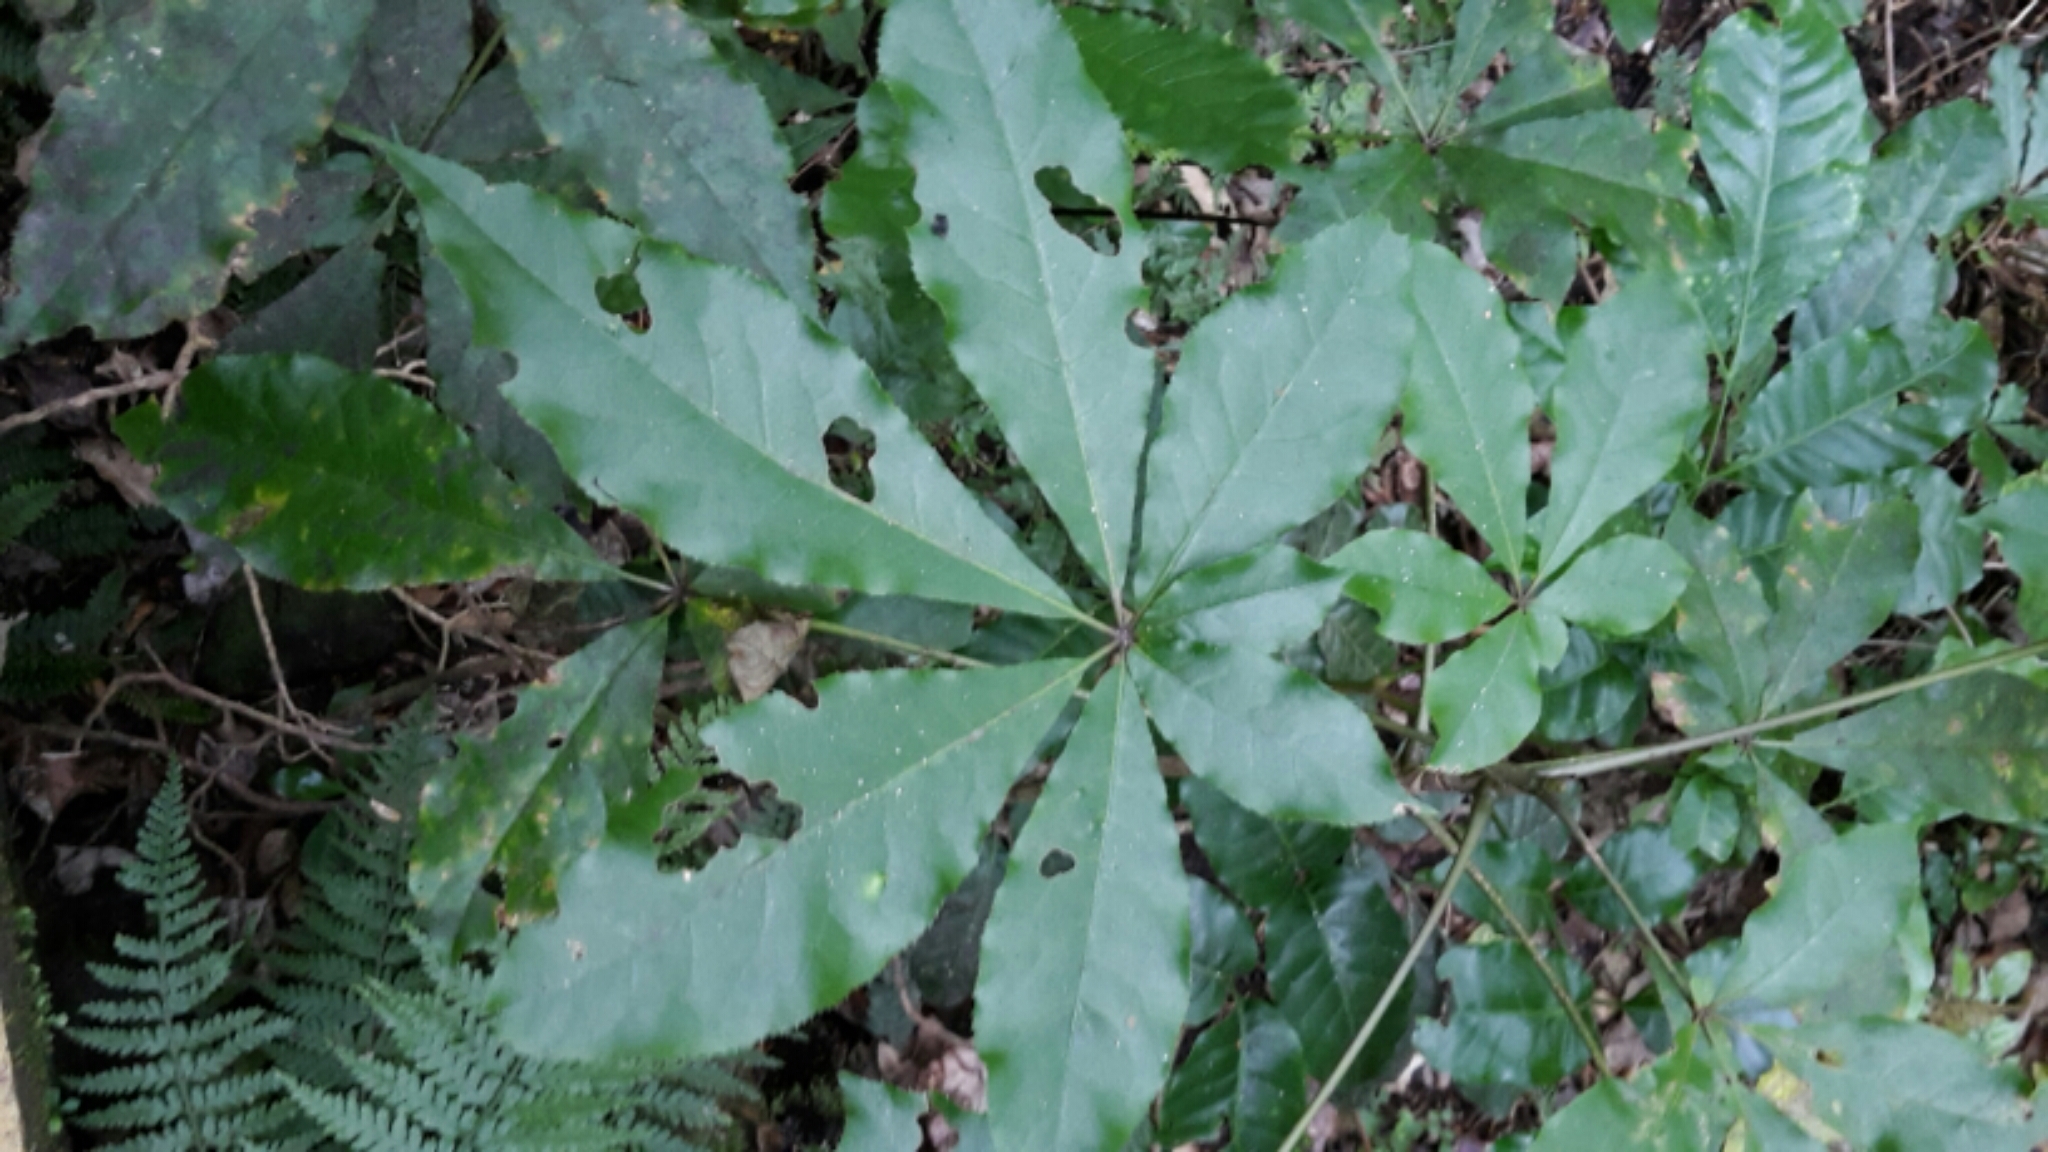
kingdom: Plantae
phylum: Tracheophyta
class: Magnoliopsida
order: Apiales
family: Araliaceae
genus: Schefflera
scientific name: Schefflera digitata
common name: Pate
